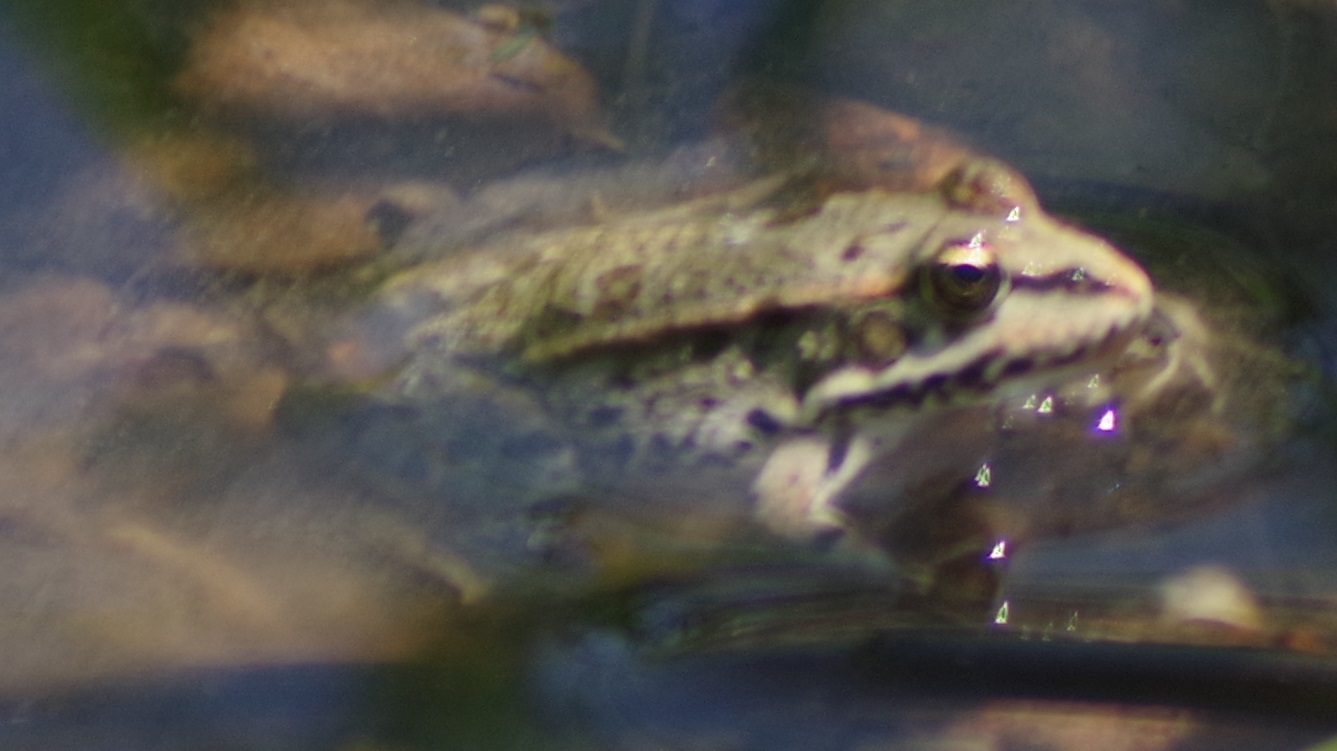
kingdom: Animalia
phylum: Chordata
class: Amphibia
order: Anura
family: Ranidae
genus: Pelophylax
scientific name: Pelophylax
